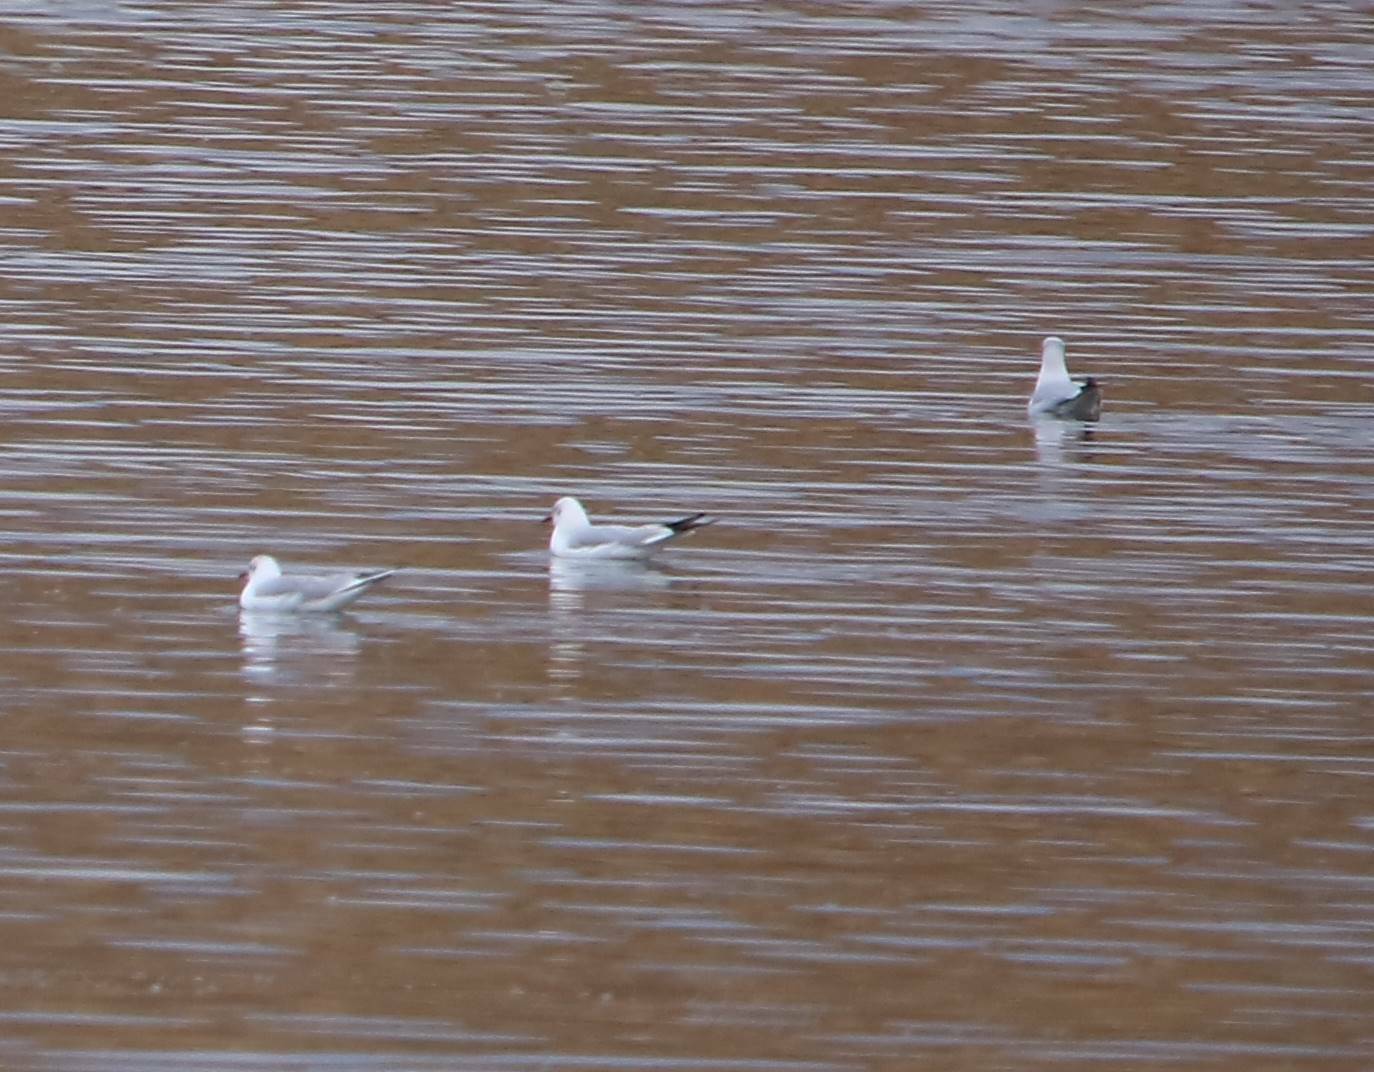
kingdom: Animalia
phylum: Chordata
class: Aves
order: Charadriiformes
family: Laridae
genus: Chroicocephalus
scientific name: Chroicocephalus ridibundus
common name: Black-headed gull
